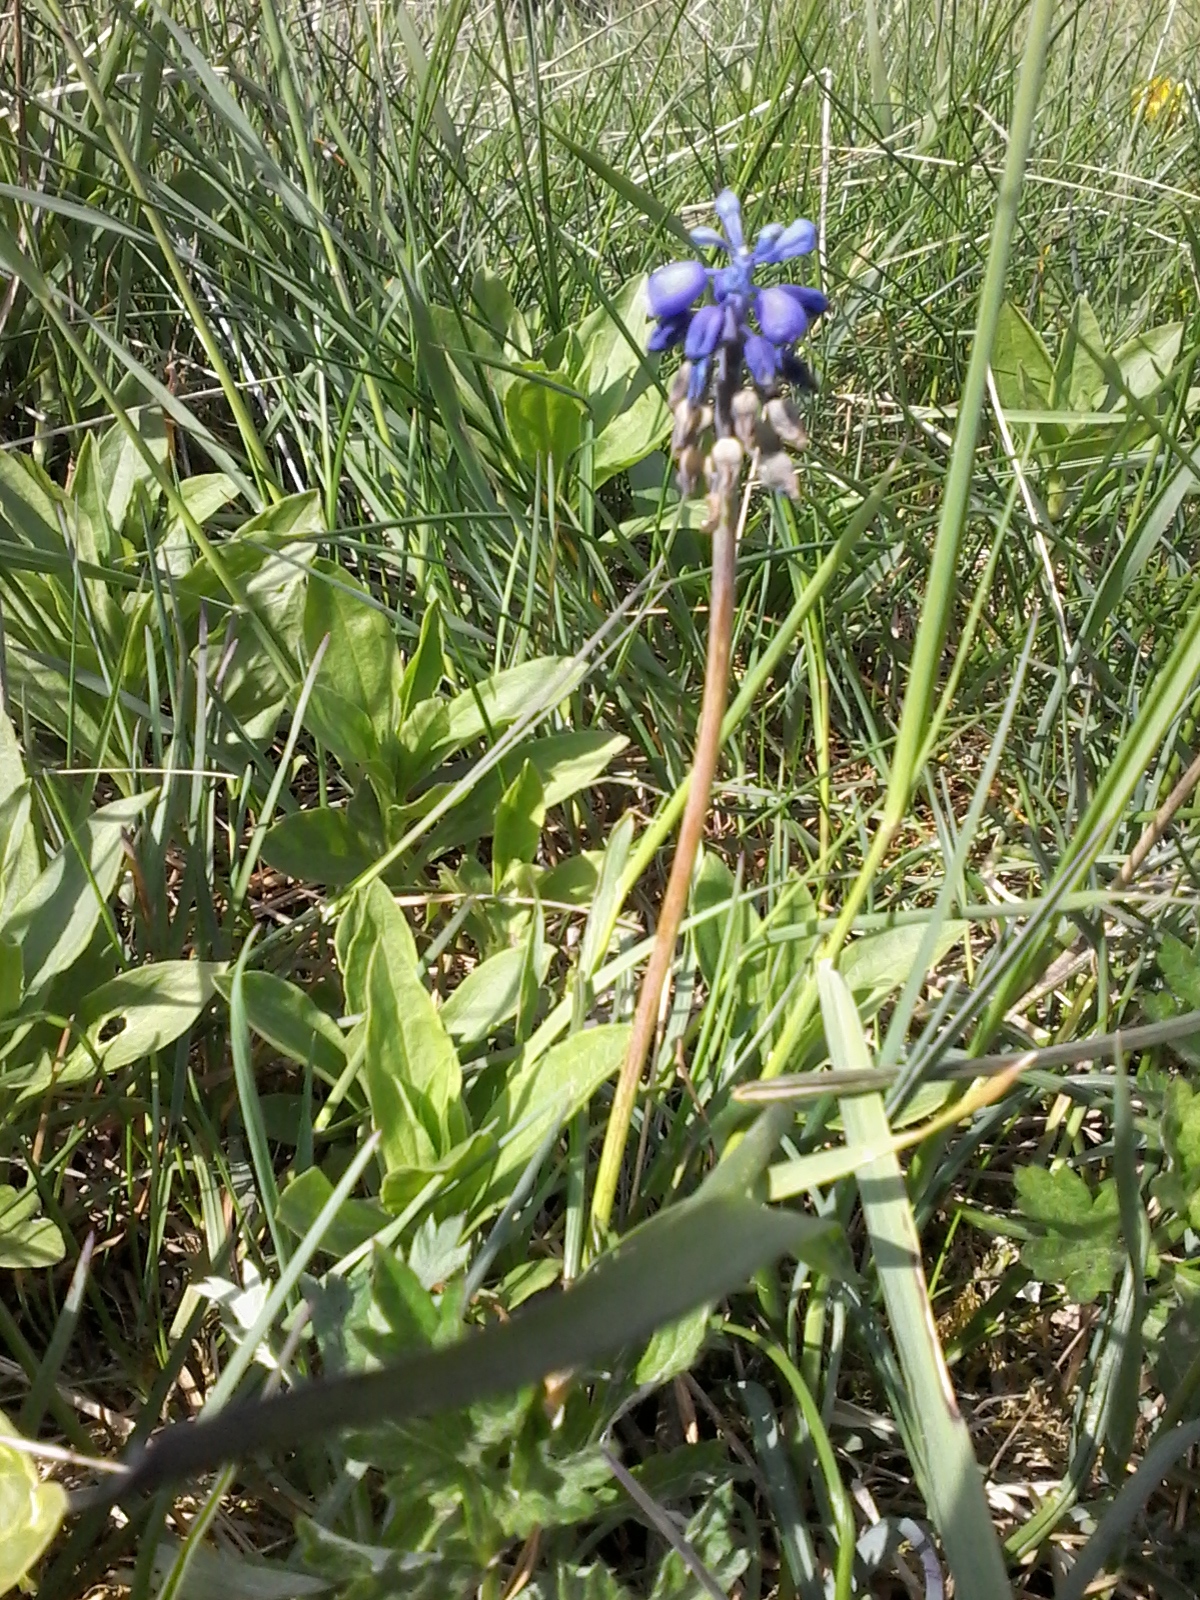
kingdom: Plantae
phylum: Tracheophyta
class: Liliopsida
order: Asparagales
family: Asparagaceae
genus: Muscari
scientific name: Muscari neglectum
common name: Grape-hyacinth
